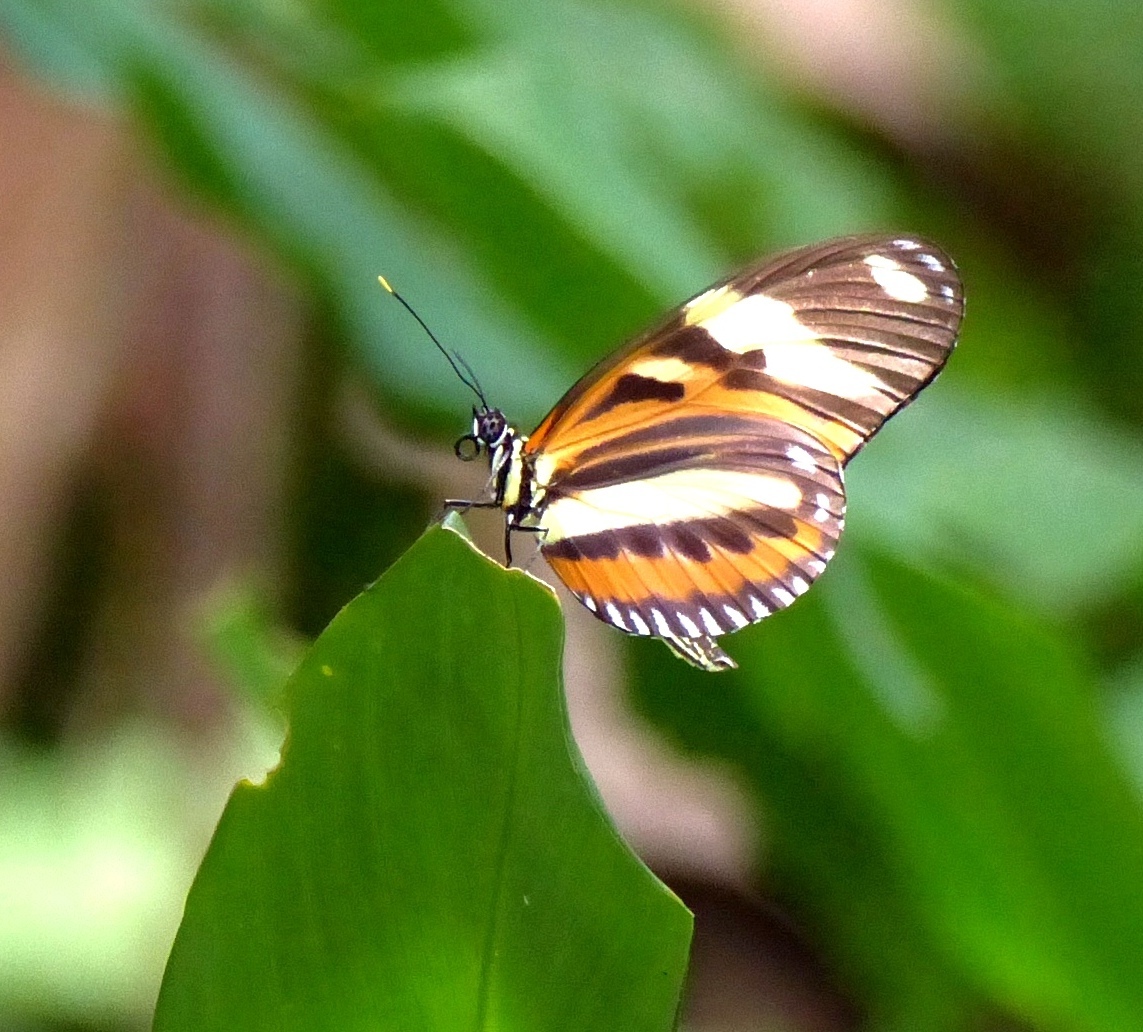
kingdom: Animalia
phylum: Arthropoda
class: Insecta
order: Lepidoptera
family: Nymphalidae
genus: Heliconius
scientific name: Heliconius ethilla
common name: Ethilia longwing
